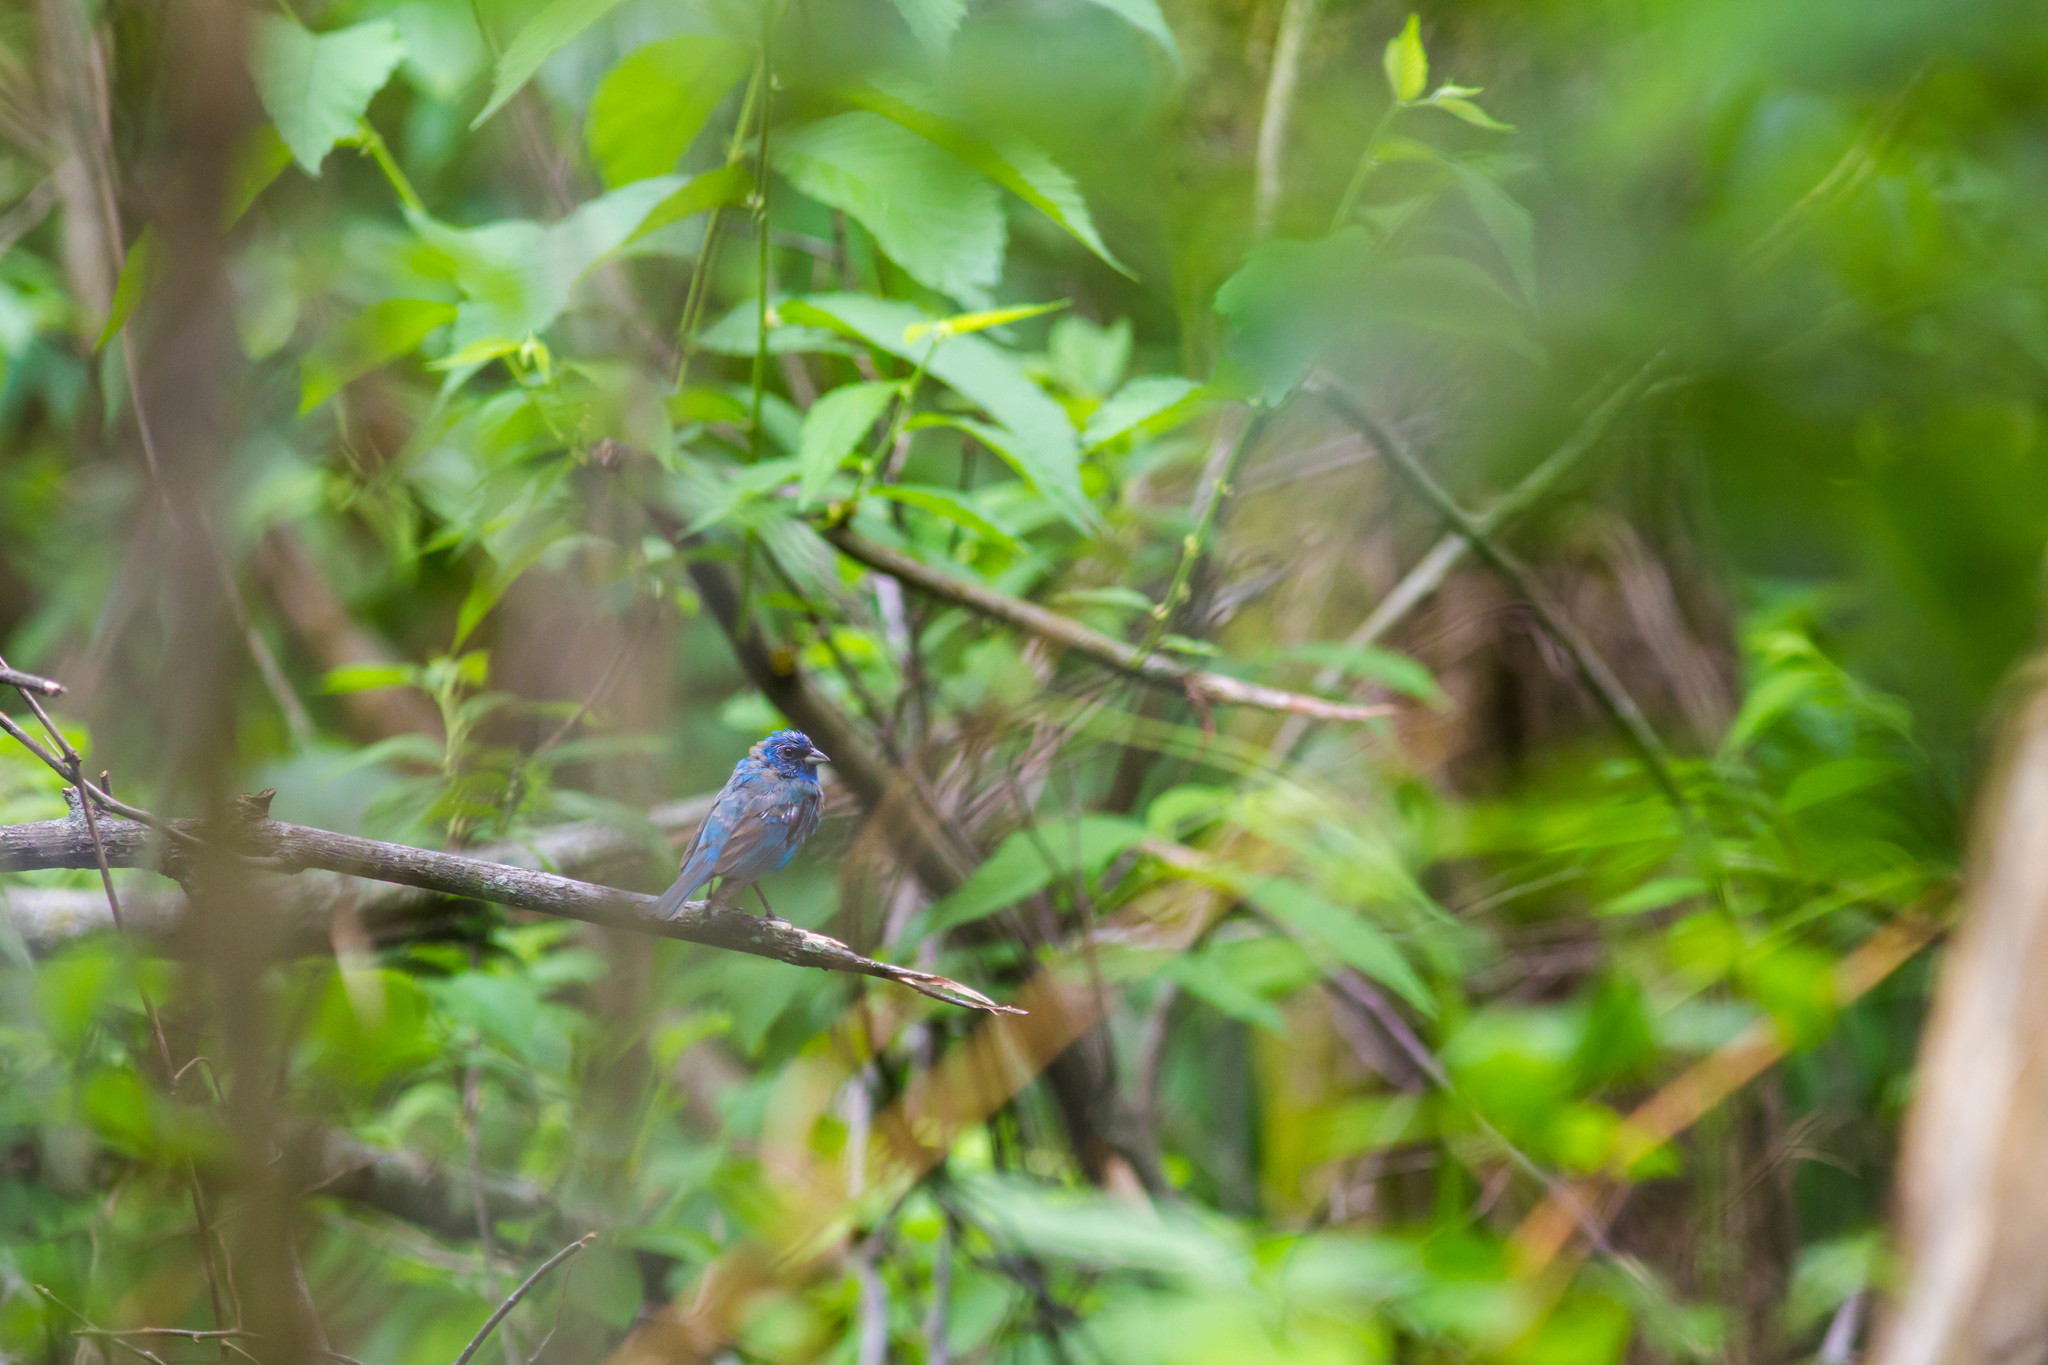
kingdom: Animalia
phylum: Chordata
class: Aves
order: Passeriformes
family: Cardinalidae
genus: Passerina
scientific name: Passerina cyanea
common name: Indigo bunting
